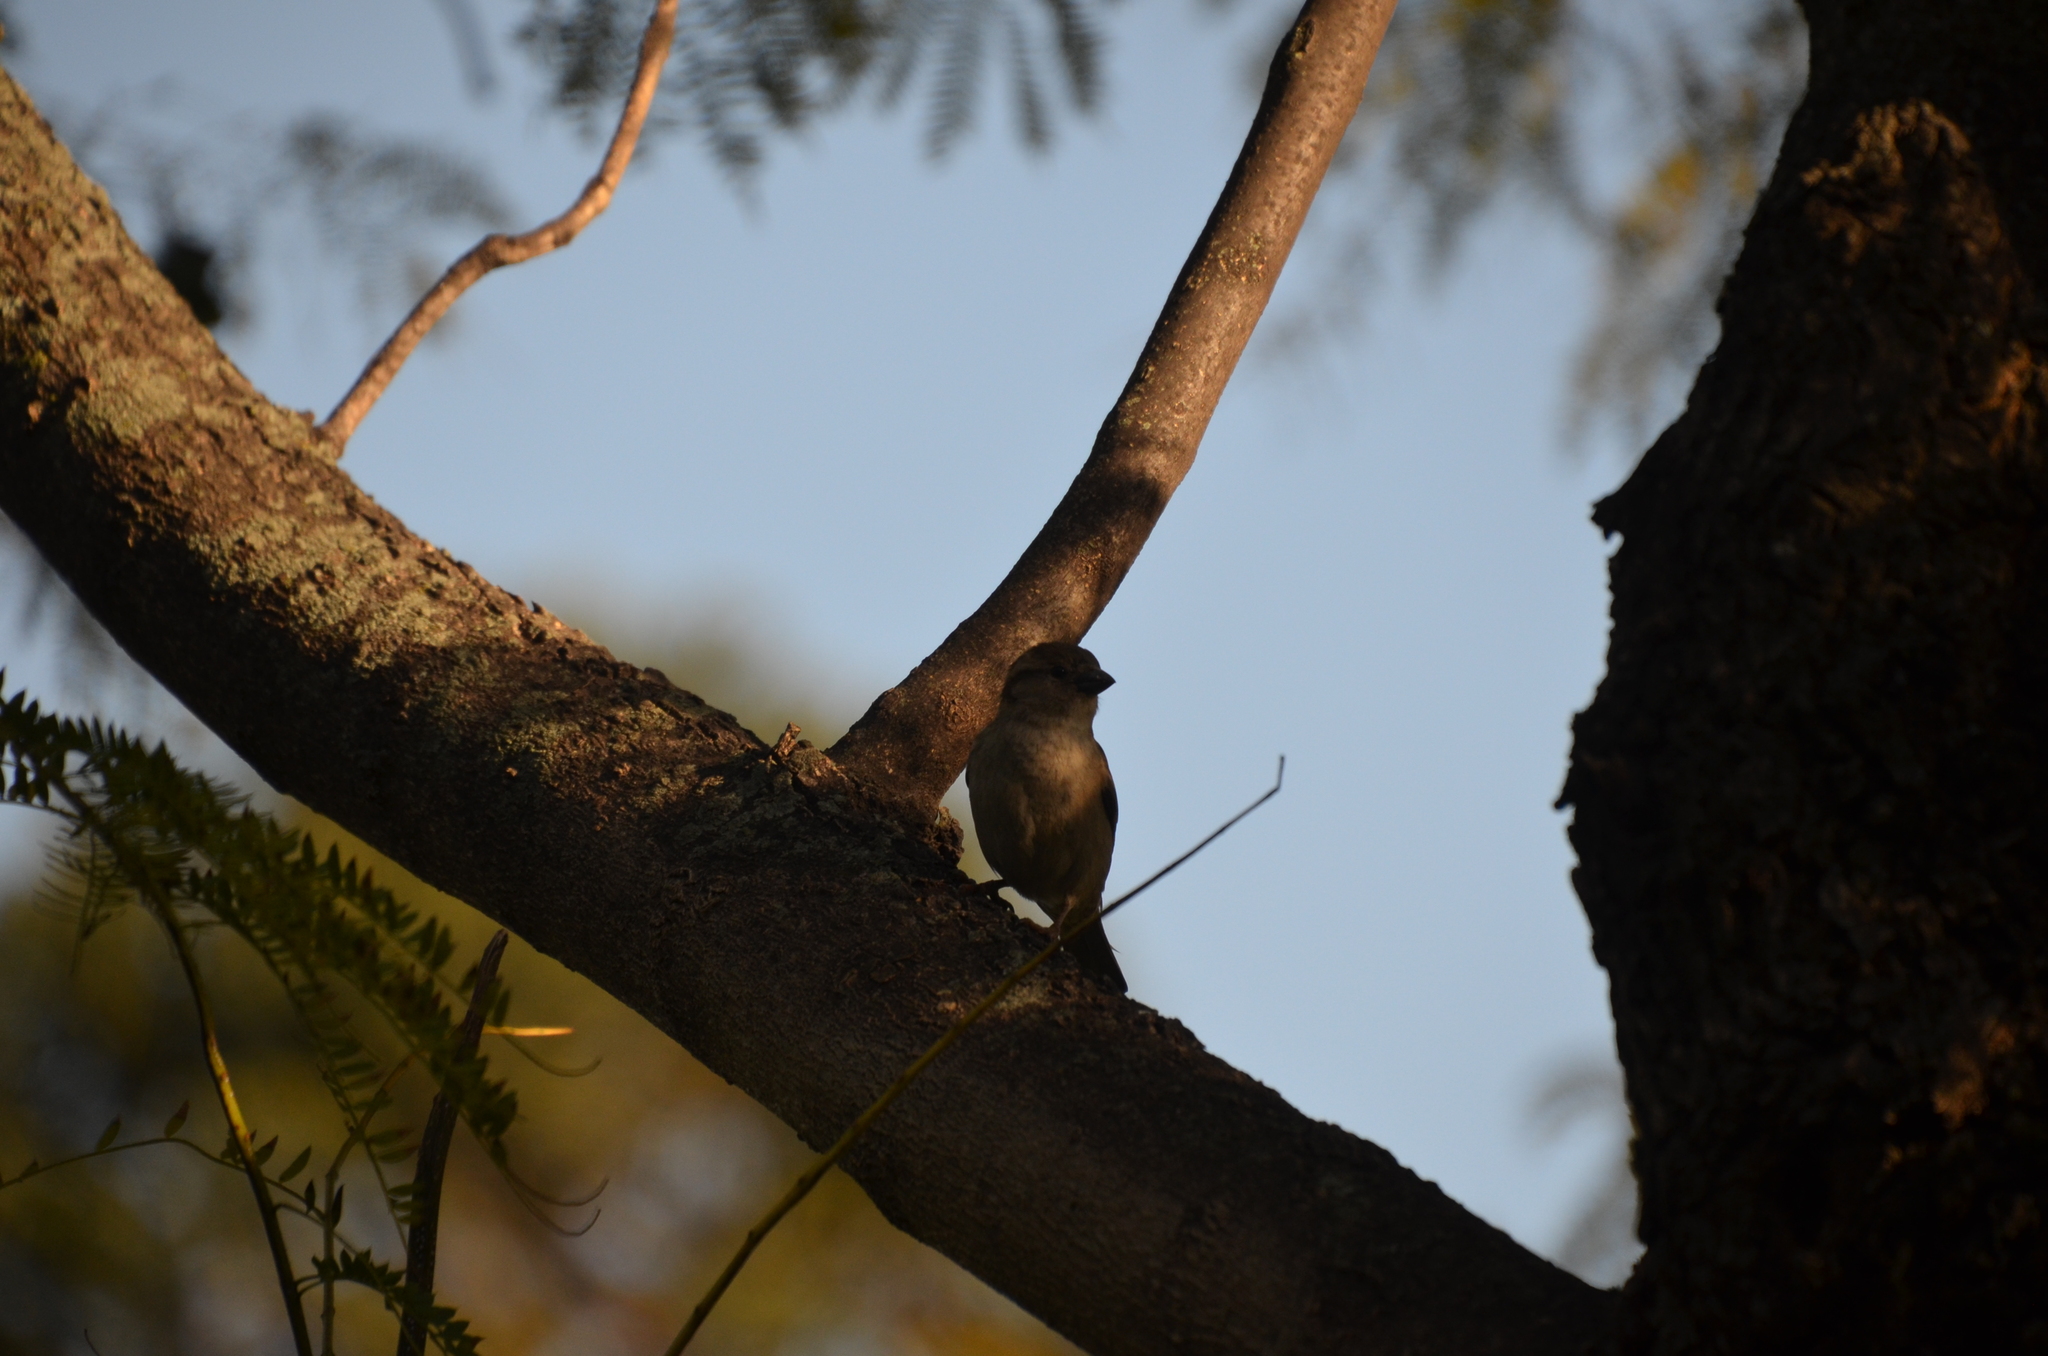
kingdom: Animalia
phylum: Chordata
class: Aves
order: Passeriformes
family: Passeridae
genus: Passer
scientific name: Passer domesticus
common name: House sparrow
